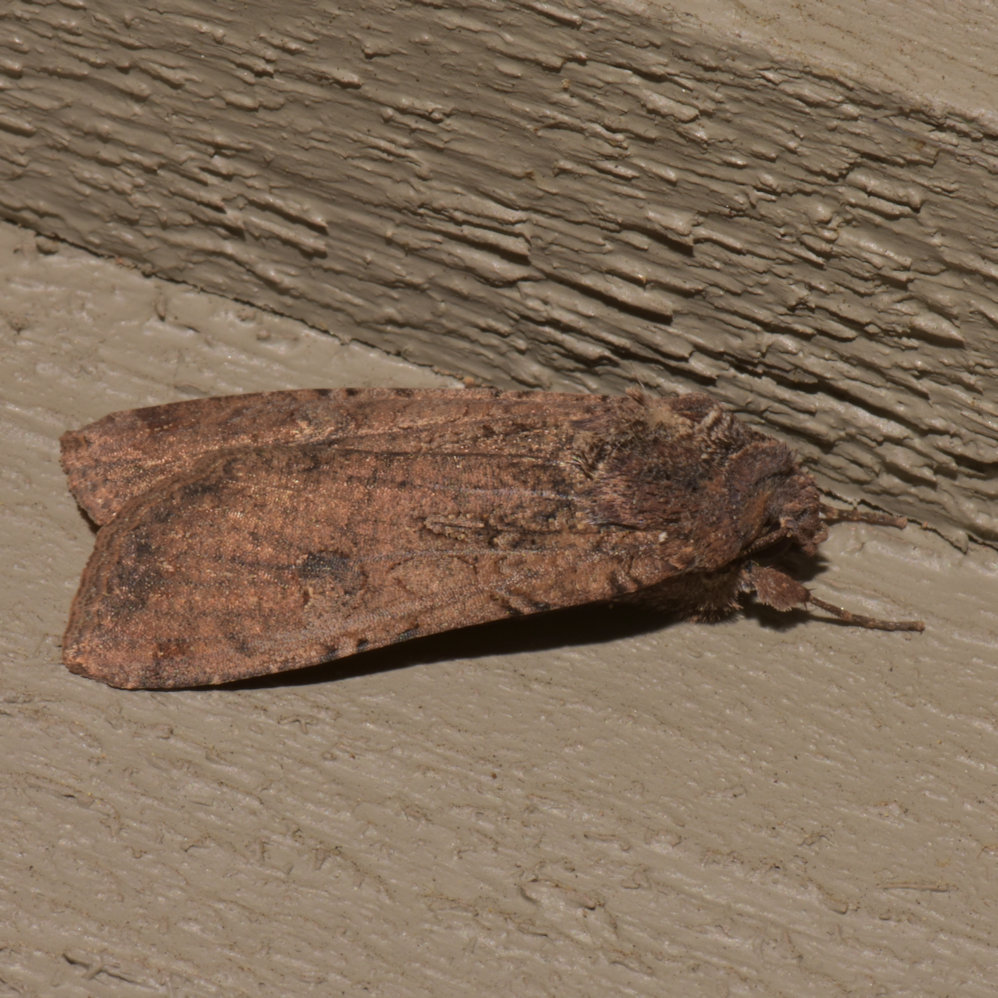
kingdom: Animalia
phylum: Arthropoda
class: Insecta
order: Lepidoptera
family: Noctuidae
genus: Peridroma
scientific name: Peridroma saucia
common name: Pearly underwing
